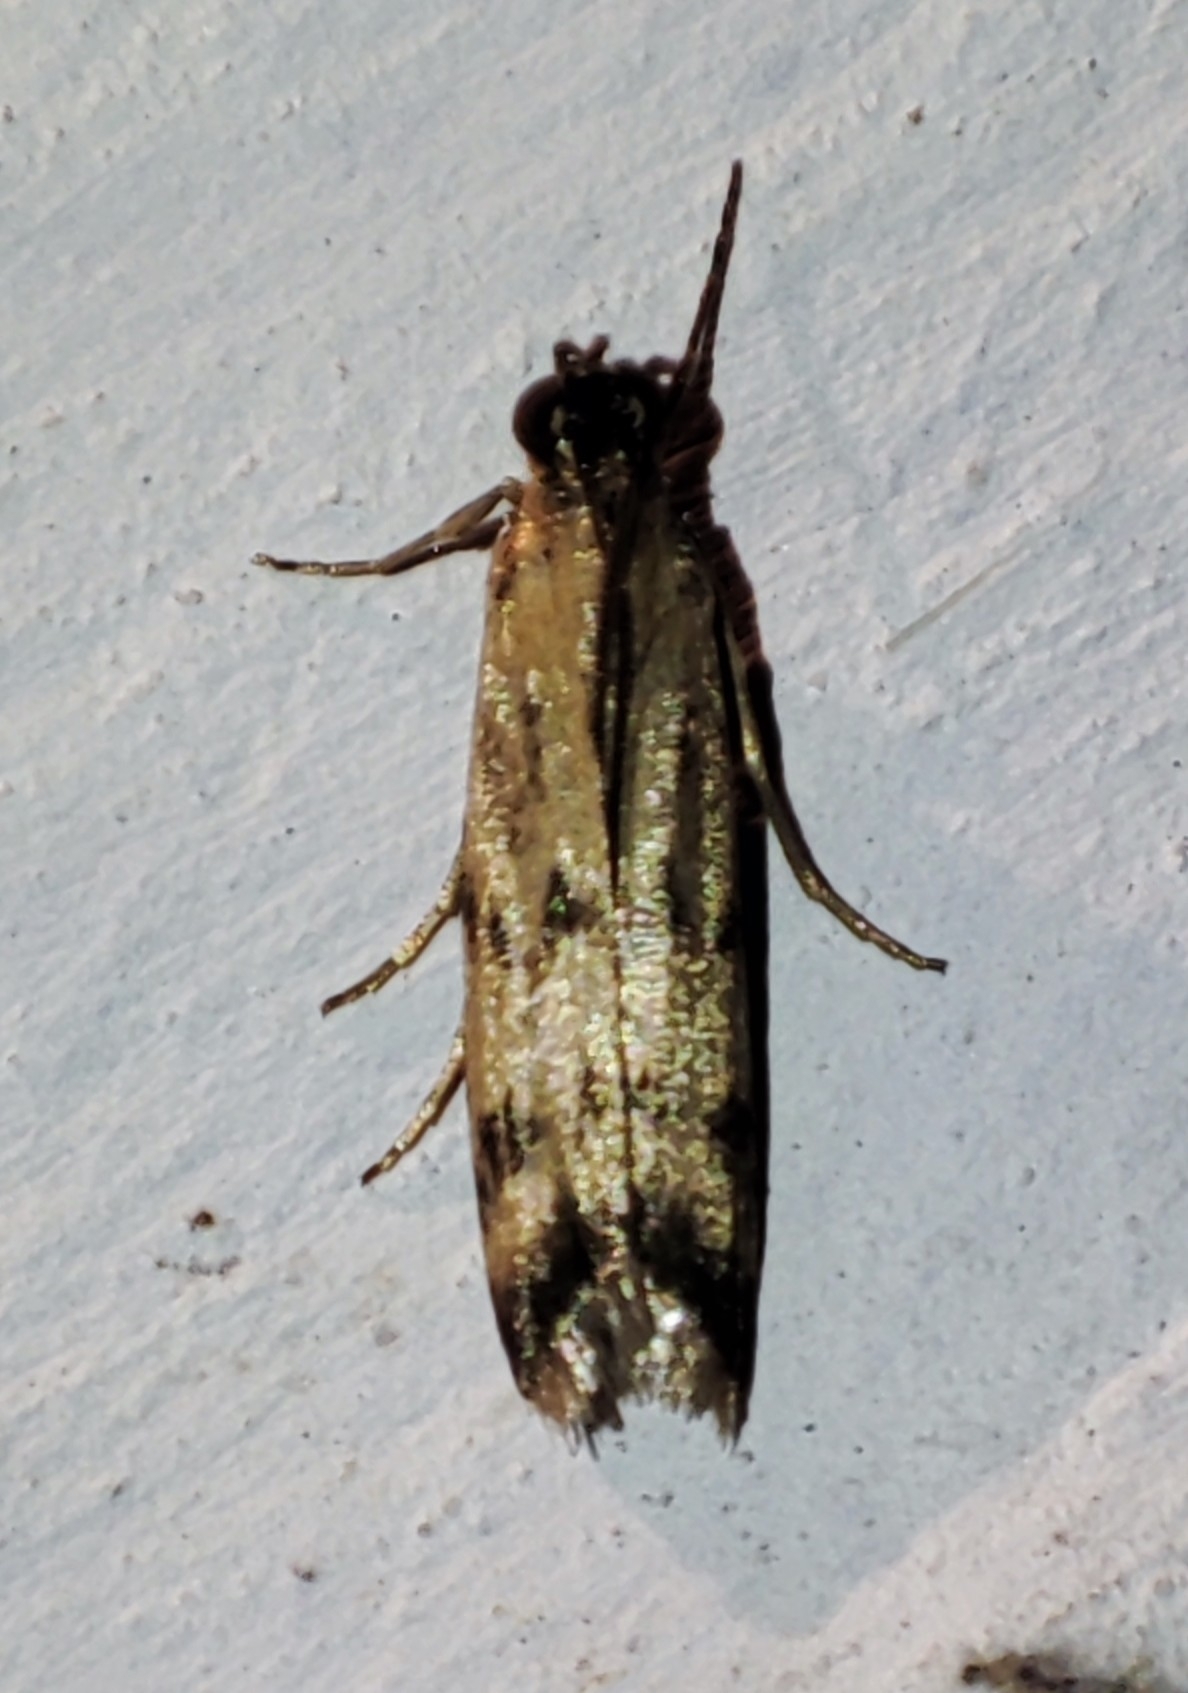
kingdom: Animalia
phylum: Arthropoda
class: Insecta
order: Lepidoptera
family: Pyralidae
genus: Homoeosoma
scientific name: Homoeosoma sinuella
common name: Twin-barred knot-horn
